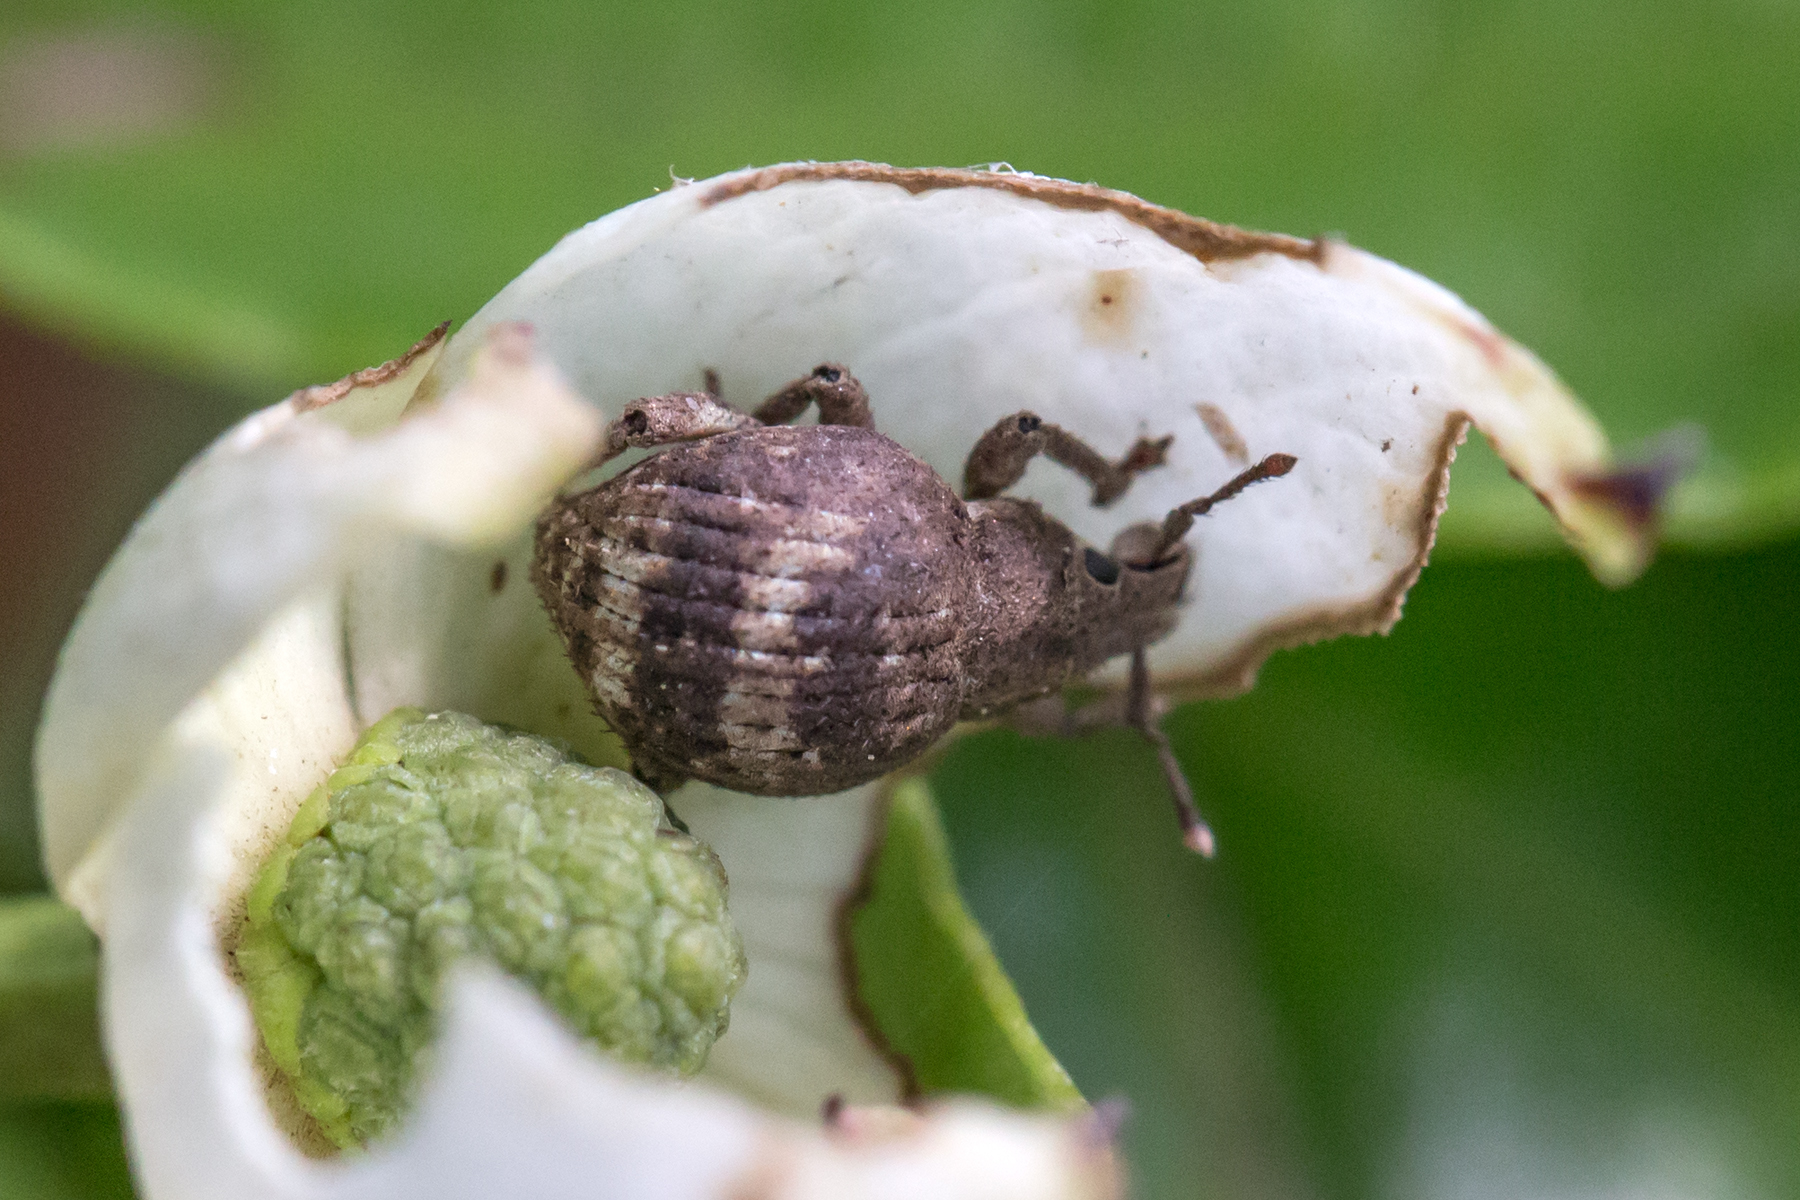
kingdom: Animalia
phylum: Arthropoda
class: Insecta
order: Coleoptera
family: Curculionidae
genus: Pseudocneorhinus
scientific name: Pseudocneorhinus bifasciatus
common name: Two-banded japanese weevil
